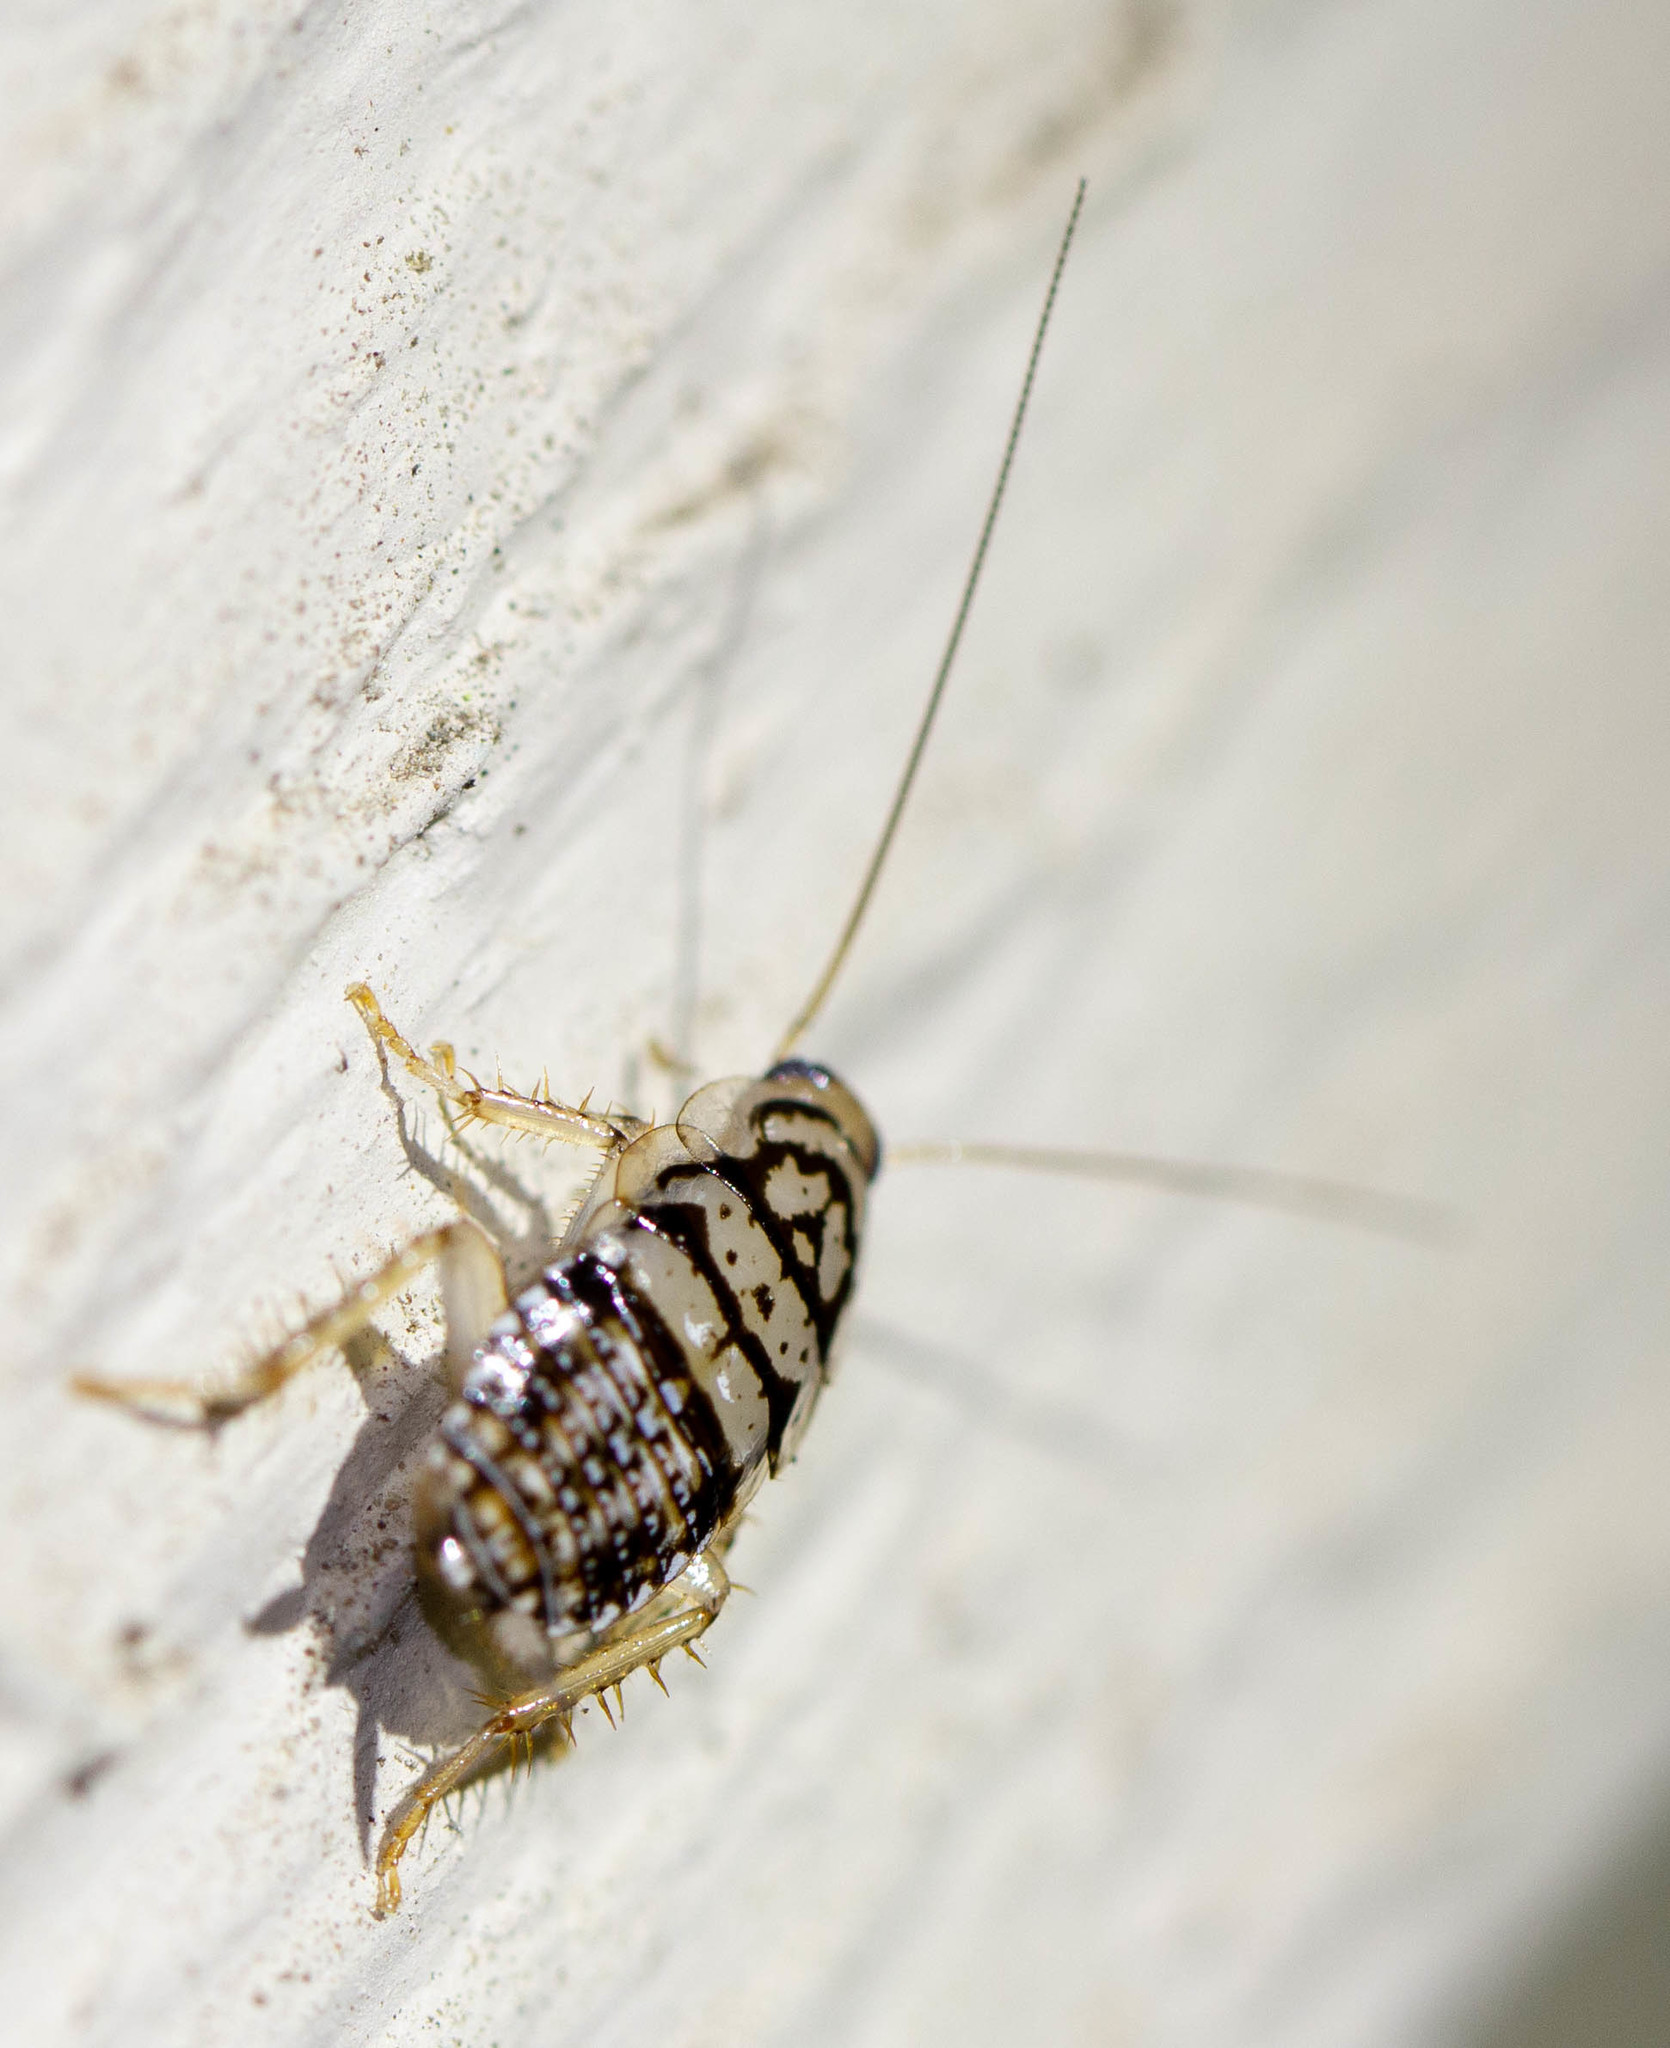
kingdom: Animalia
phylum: Arthropoda
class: Insecta
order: Blattodea
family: Ectobiidae
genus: Aglaopteryx
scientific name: Aglaopteryx gemma
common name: Shortwing gem cockroach
